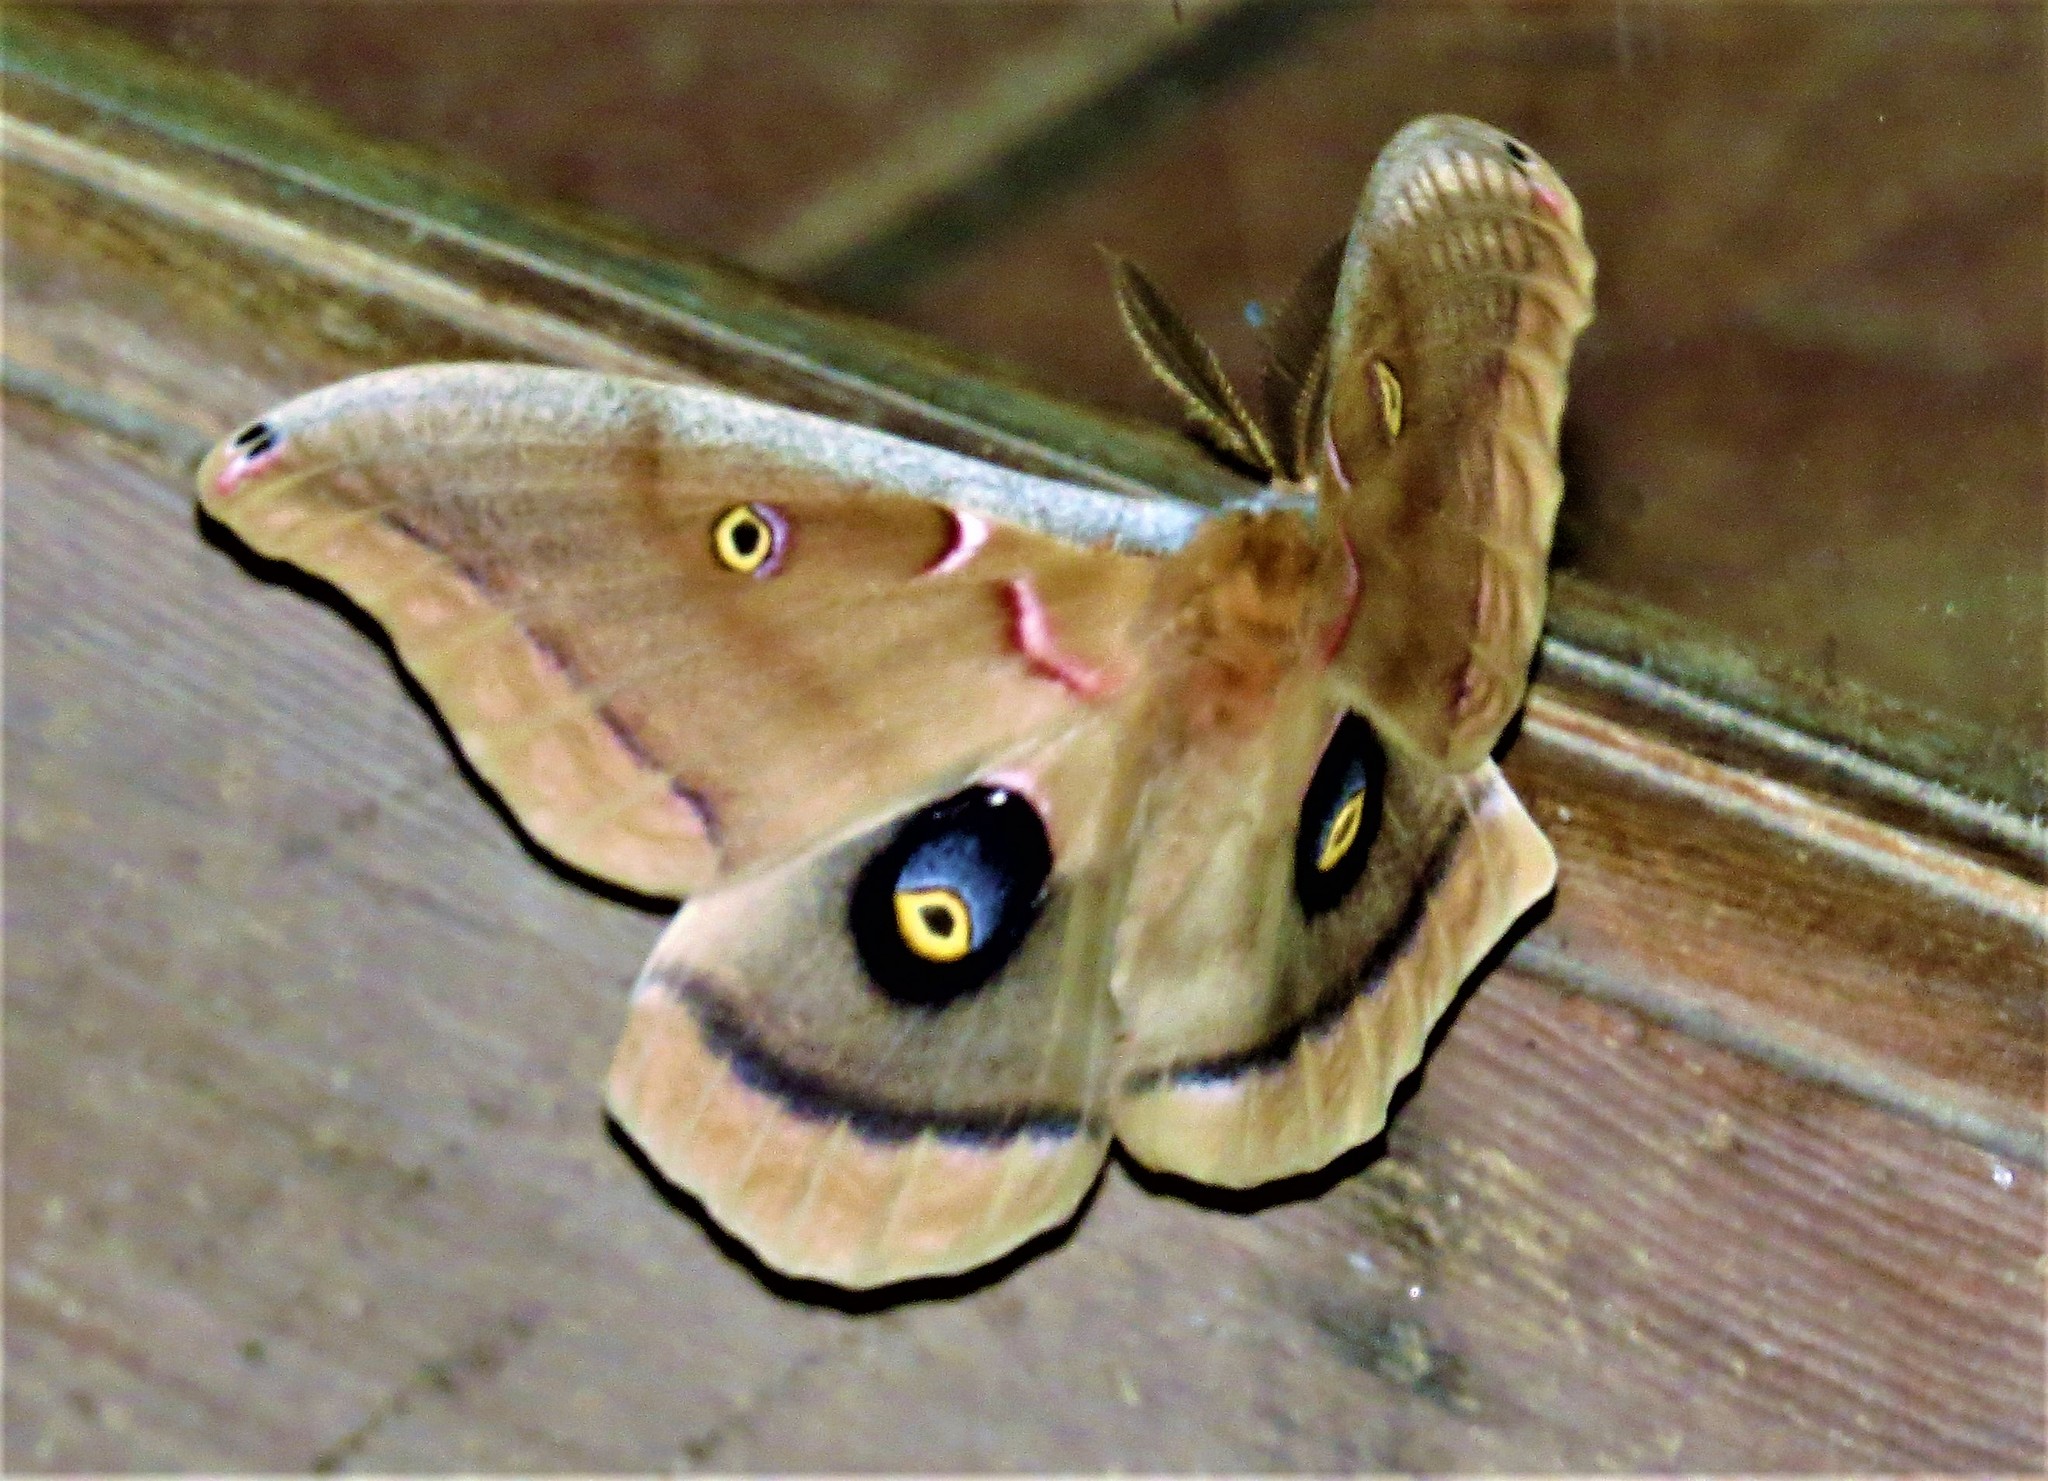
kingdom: Animalia
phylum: Arthropoda
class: Insecta
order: Lepidoptera
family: Saturniidae
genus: Antheraea
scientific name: Antheraea polyphemus
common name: Polyphemus moth
